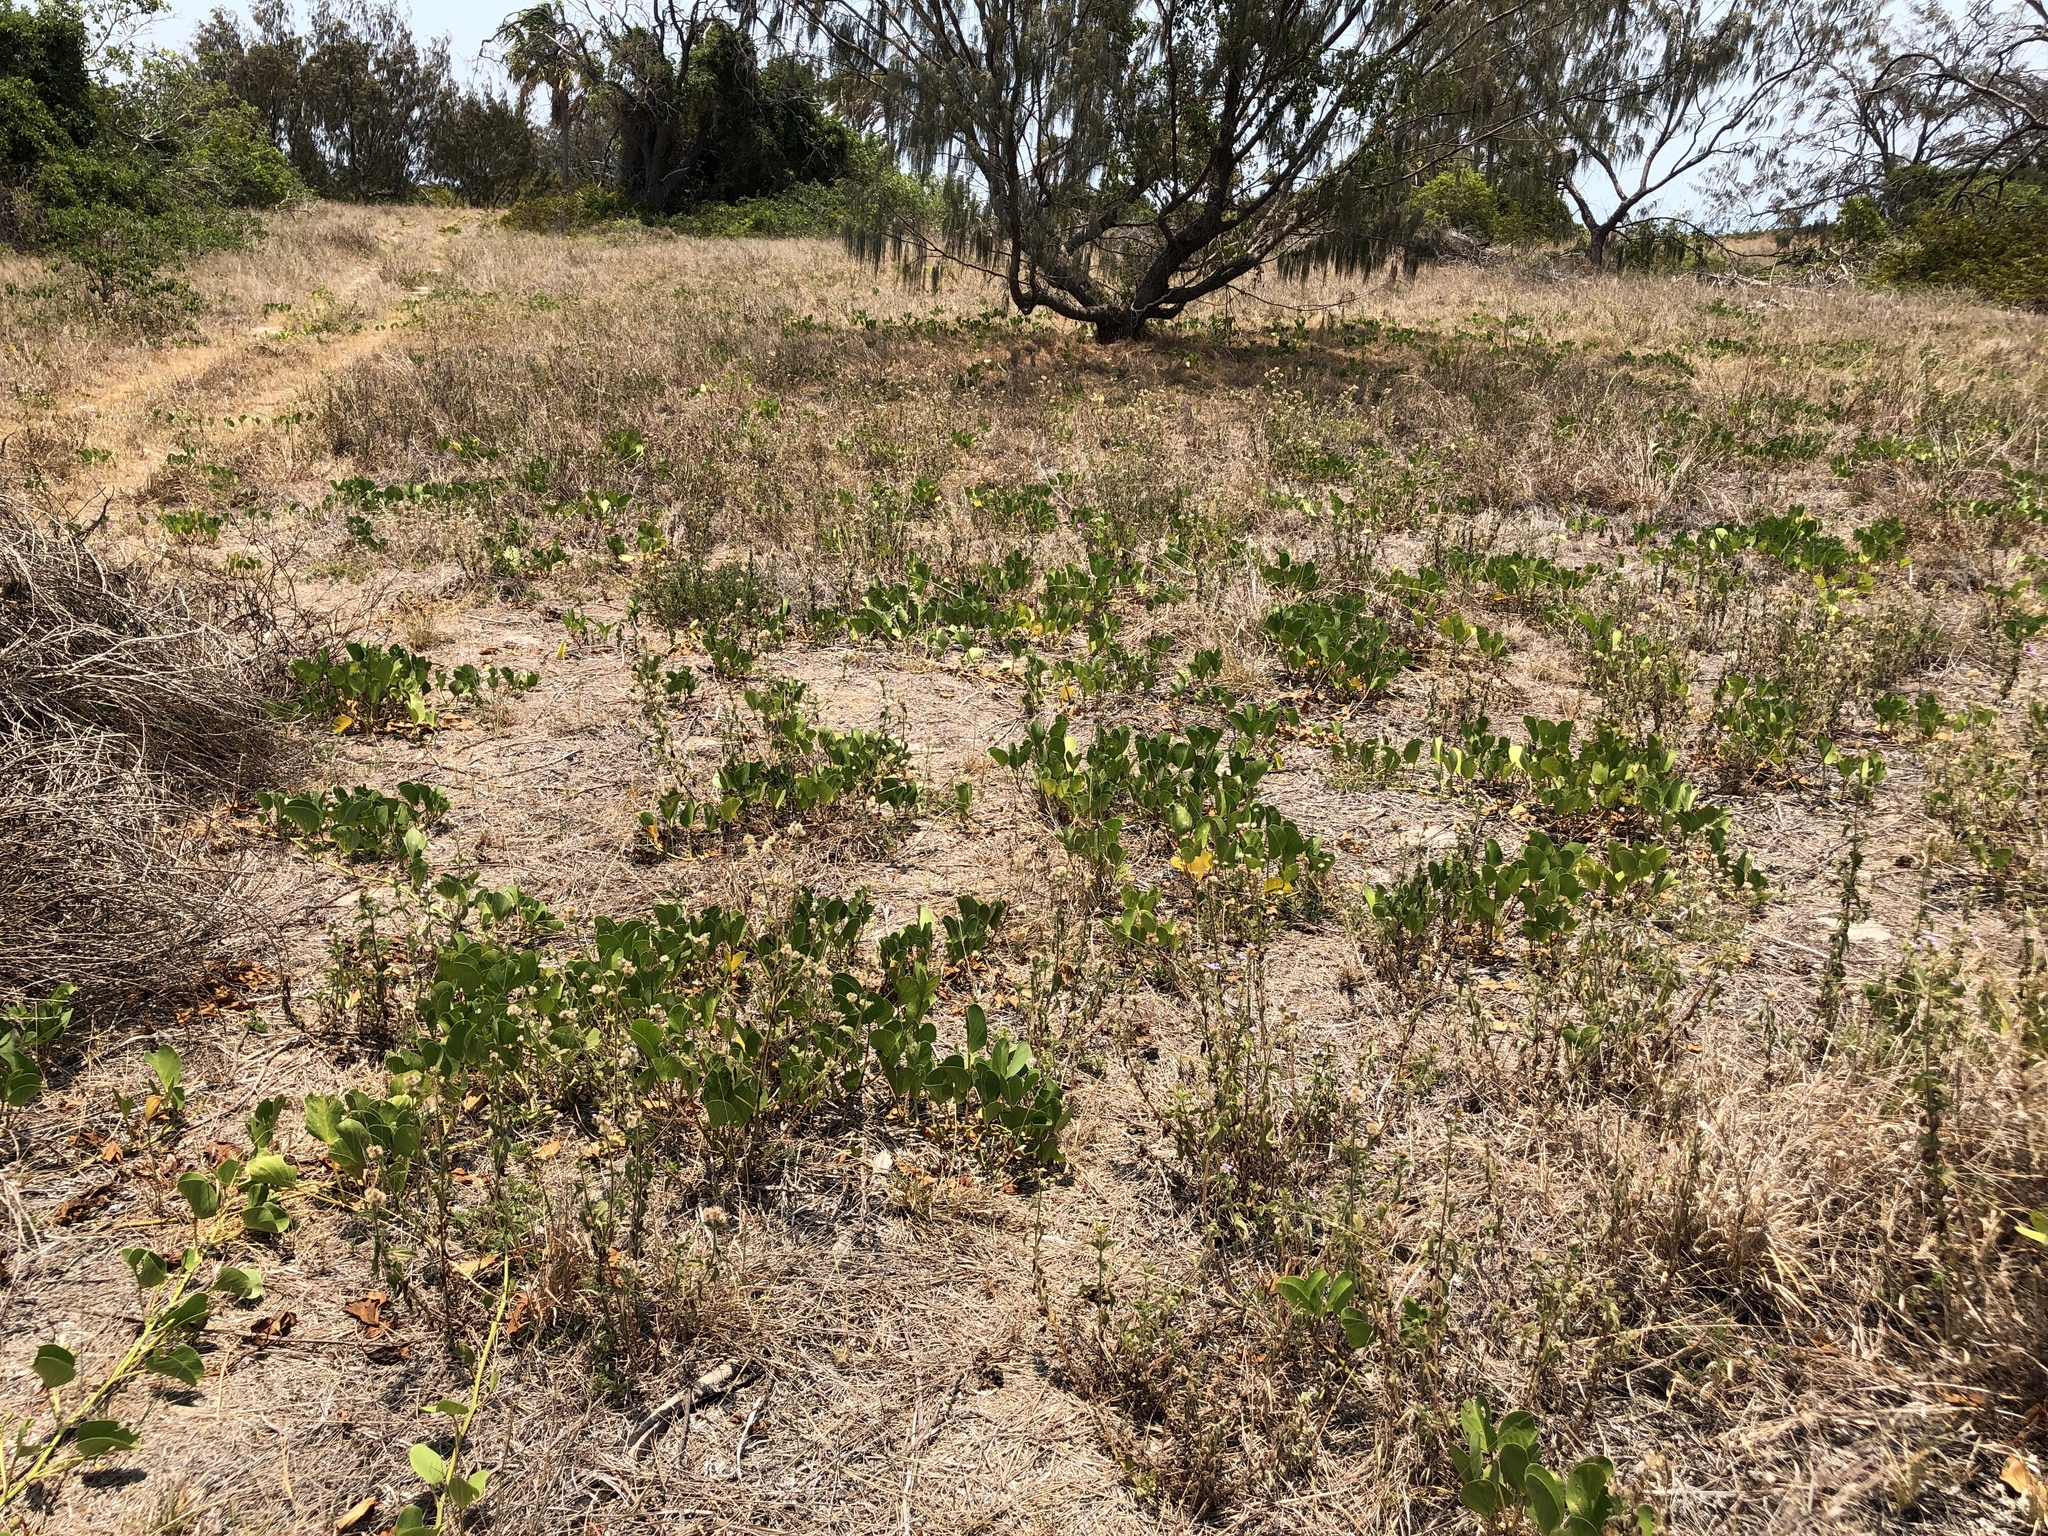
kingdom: Plantae
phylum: Tracheophyta
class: Magnoliopsida
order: Solanales
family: Convolvulaceae
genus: Ipomoea
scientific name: Ipomoea pes-caprae
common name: Beach morning glory
